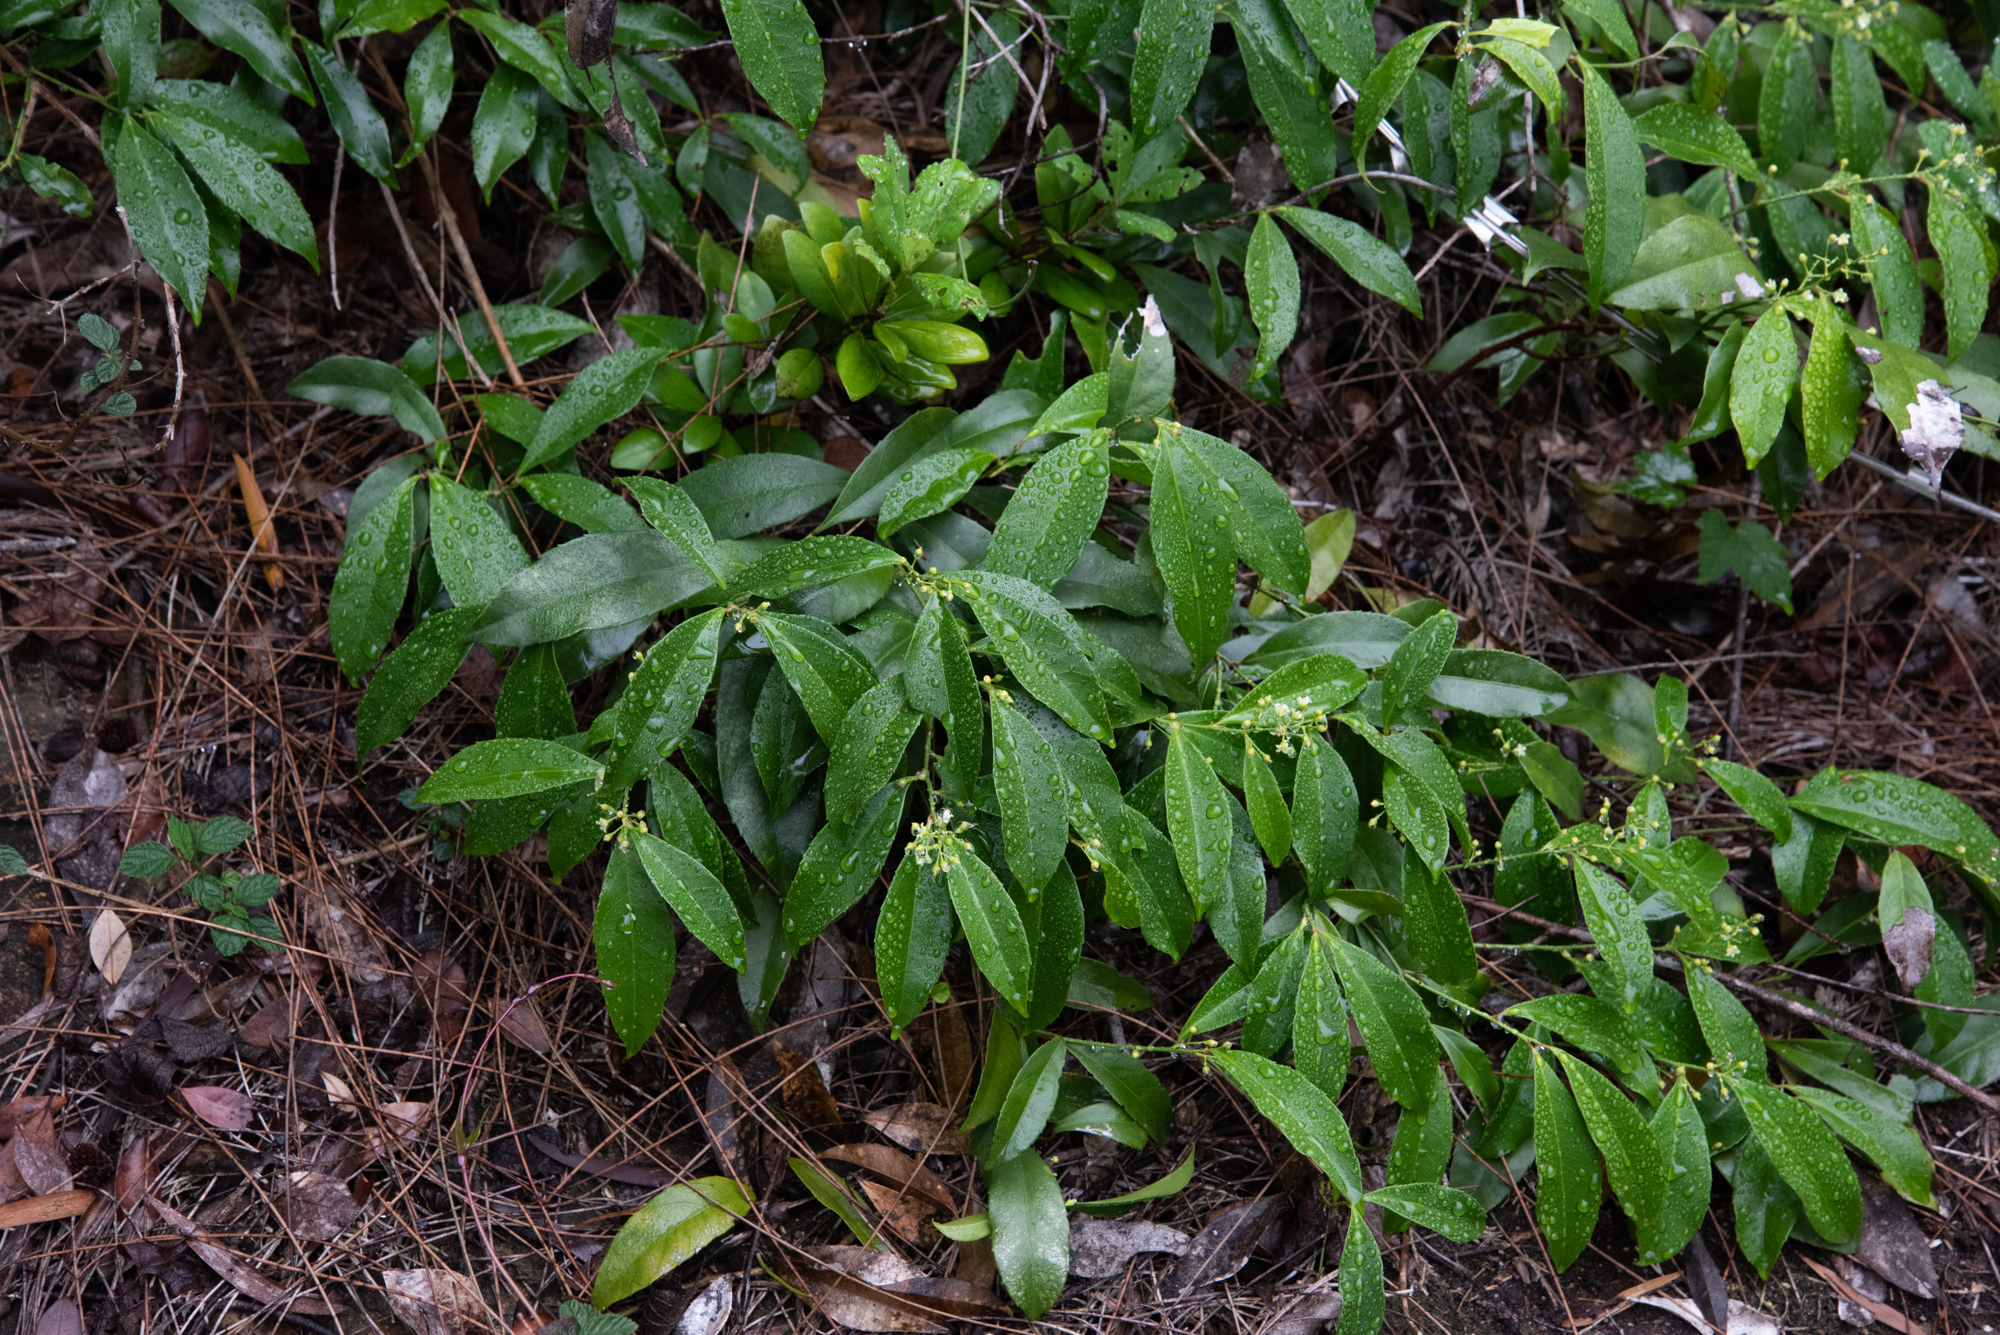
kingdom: Plantae
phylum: Tracheophyta
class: Magnoliopsida
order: Celastrales
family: Celastraceae
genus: Celastrus
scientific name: Celastrus hindsii
